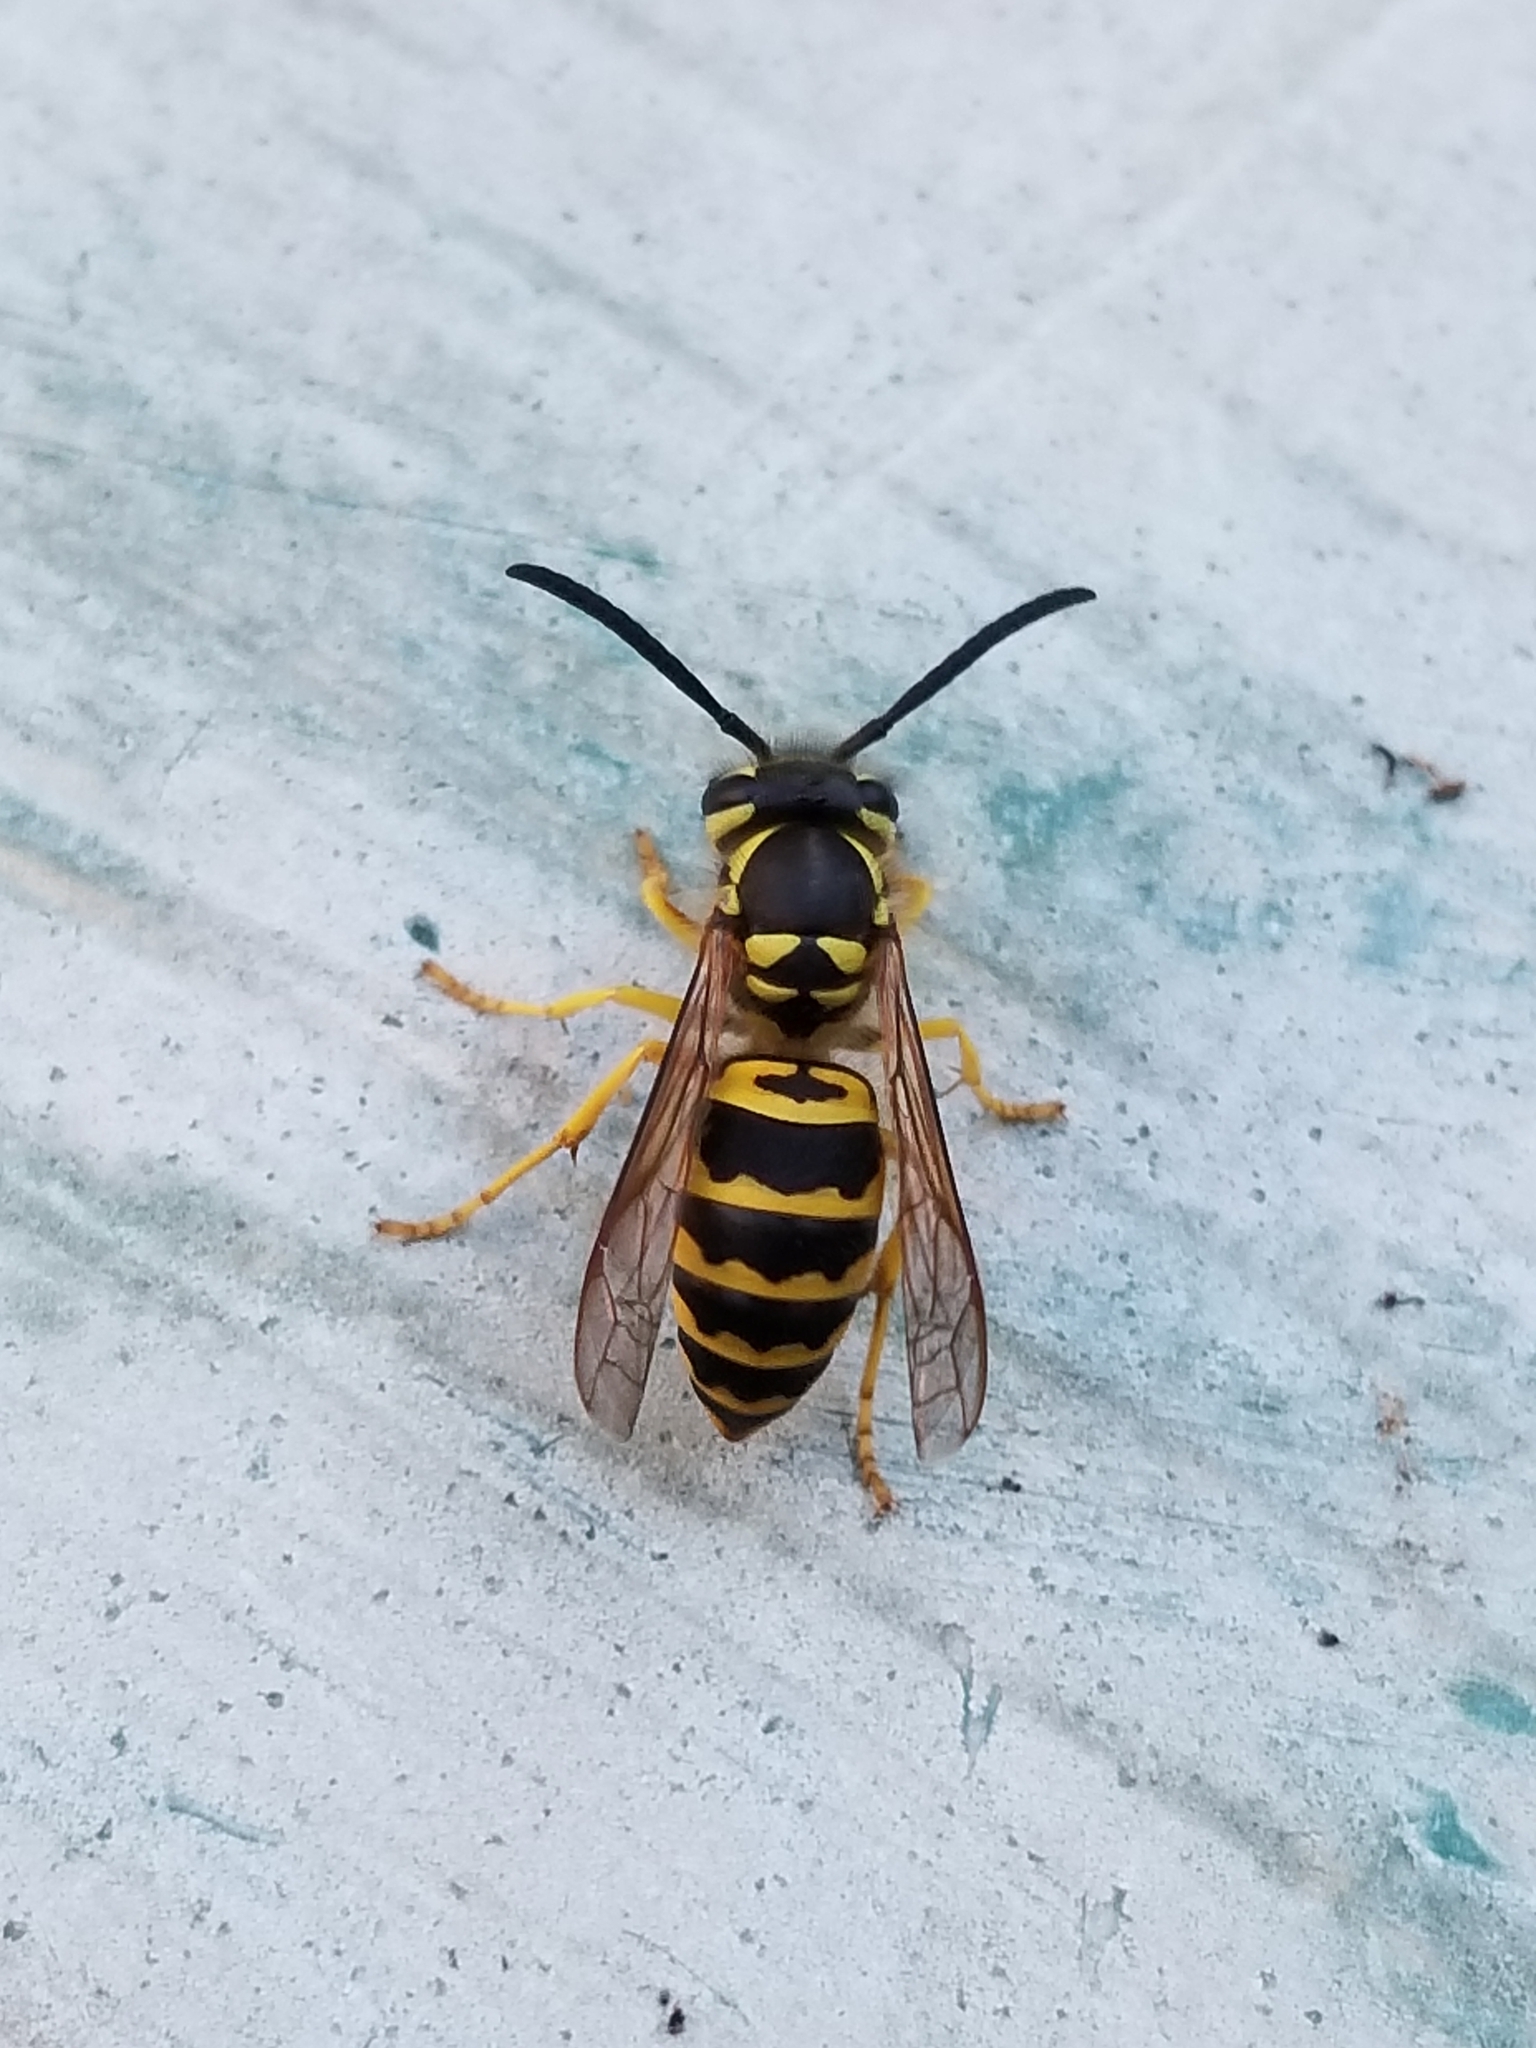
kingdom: Animalia
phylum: Arthropoda
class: Insecta
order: Hymenoptera
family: Vespidae
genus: Vespula
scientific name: Vespula maculifrons
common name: Eastern yellowjacket
